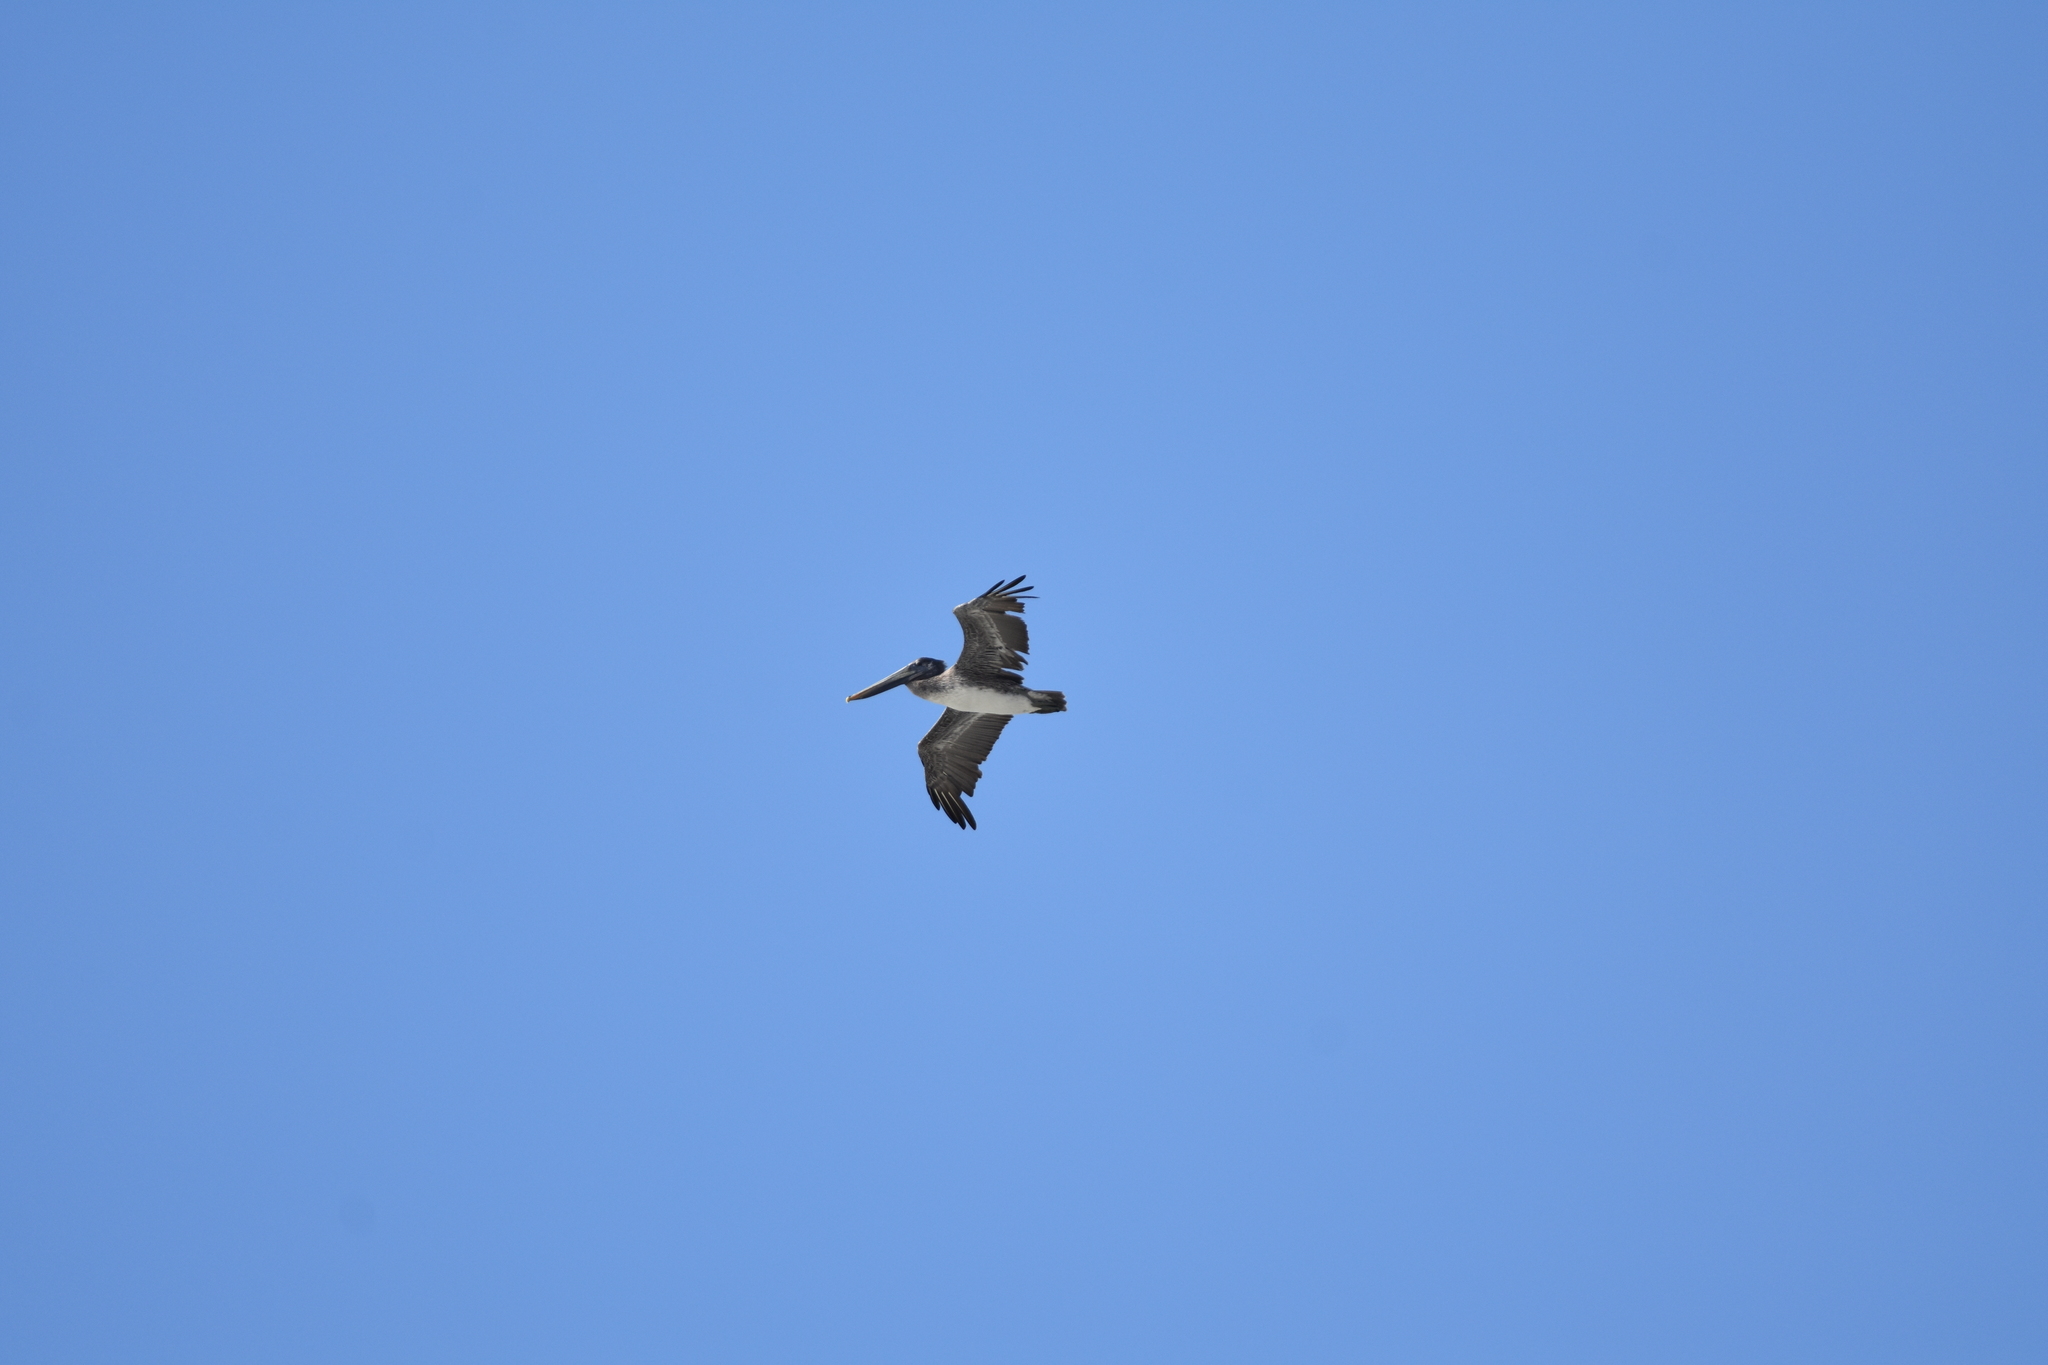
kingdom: Animalia
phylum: Chordata
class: Aves
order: Pelecaniformes
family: Pelecanidae
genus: Pelecanus
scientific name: Pelecanus occidentalis
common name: Brown pelican
